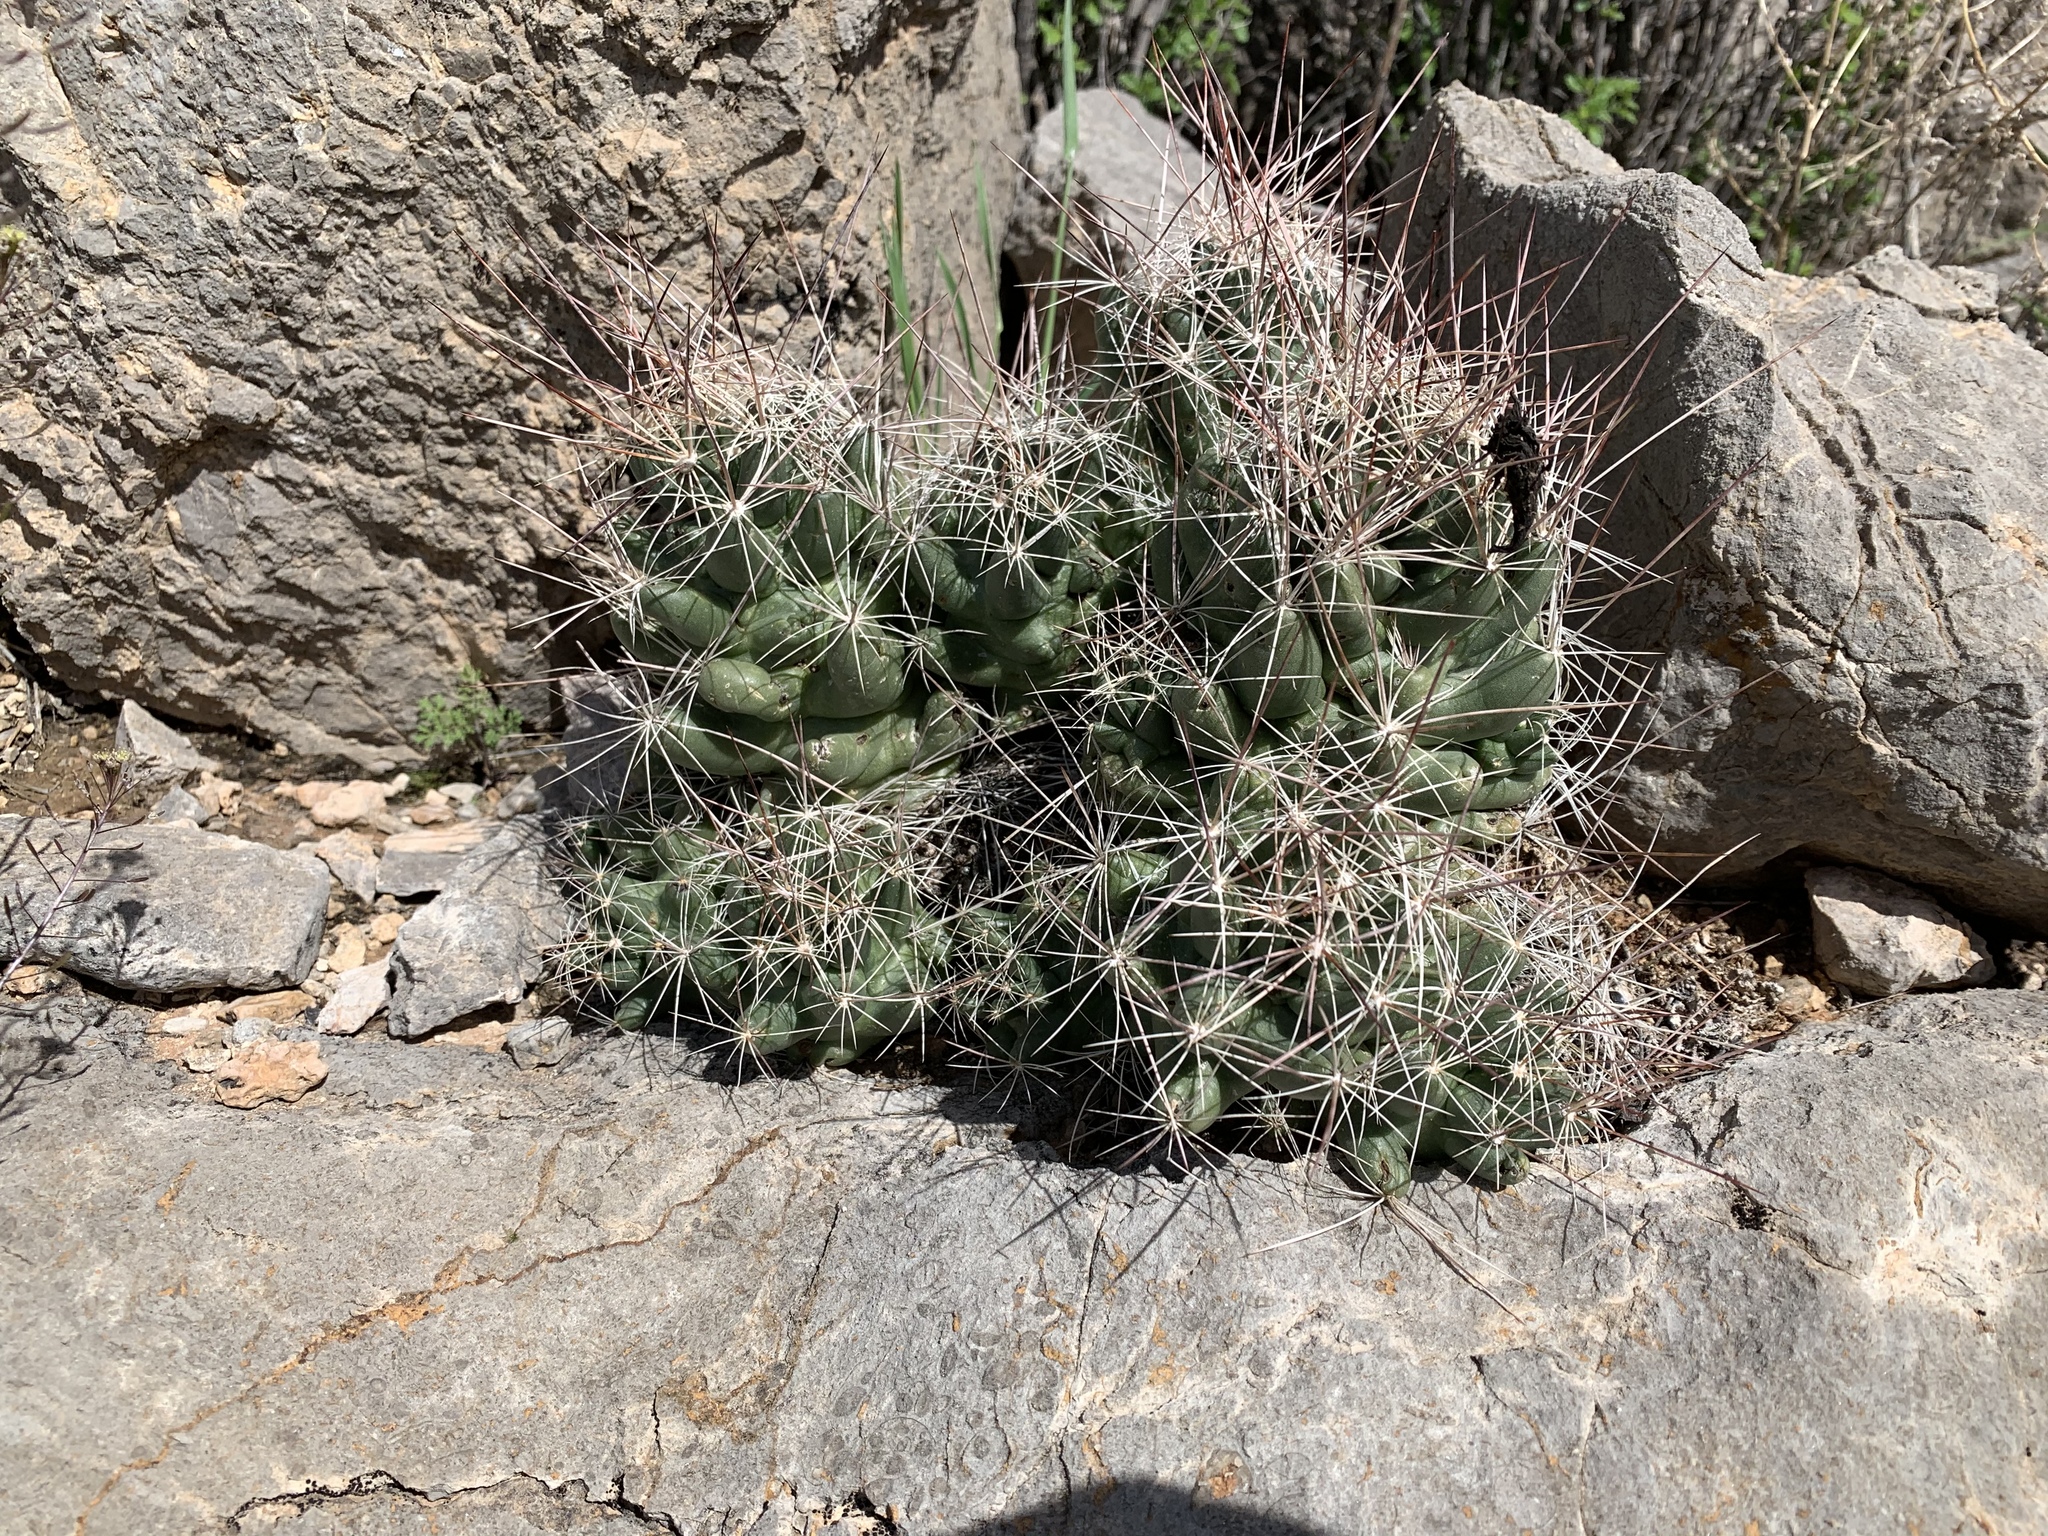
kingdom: Plantae
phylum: Tracheophyta
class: Magnoliopsida
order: Caryophyllales
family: Cactaceae
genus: Coryphantha
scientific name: Coryphantha macromeris
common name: Nipple beehive cactus
